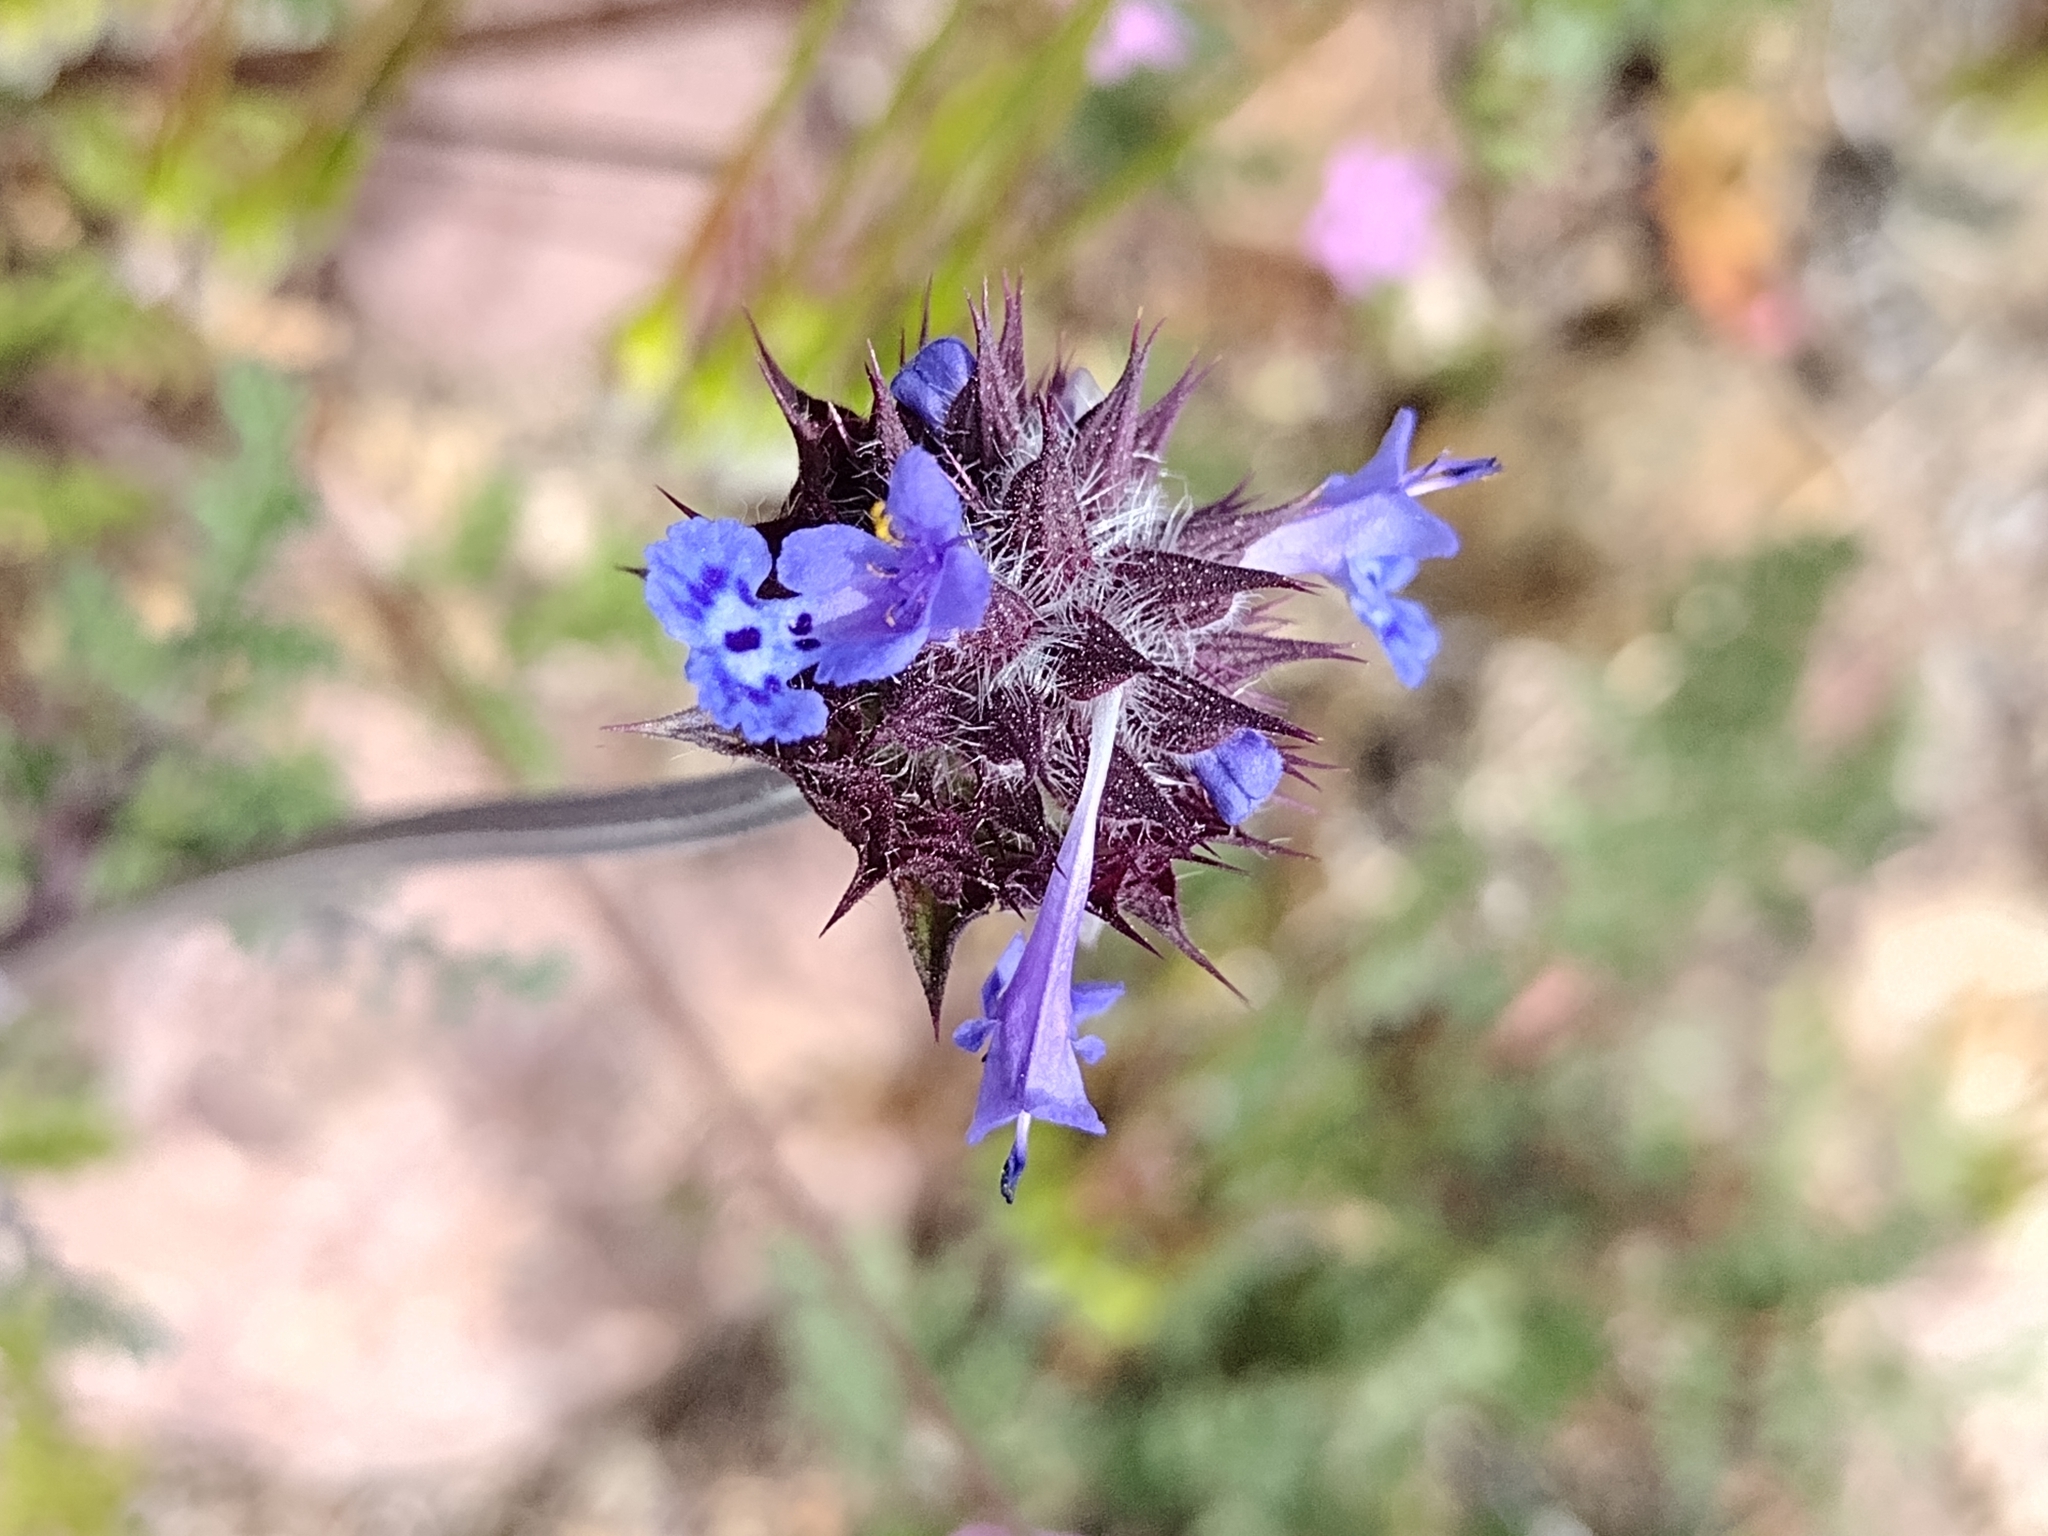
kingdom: Plantae
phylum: Tracheophyta
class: Magnoliopsida
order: Lamiales
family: Lamiaceae
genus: Salvia
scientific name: Salvia columbariae
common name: Chia
